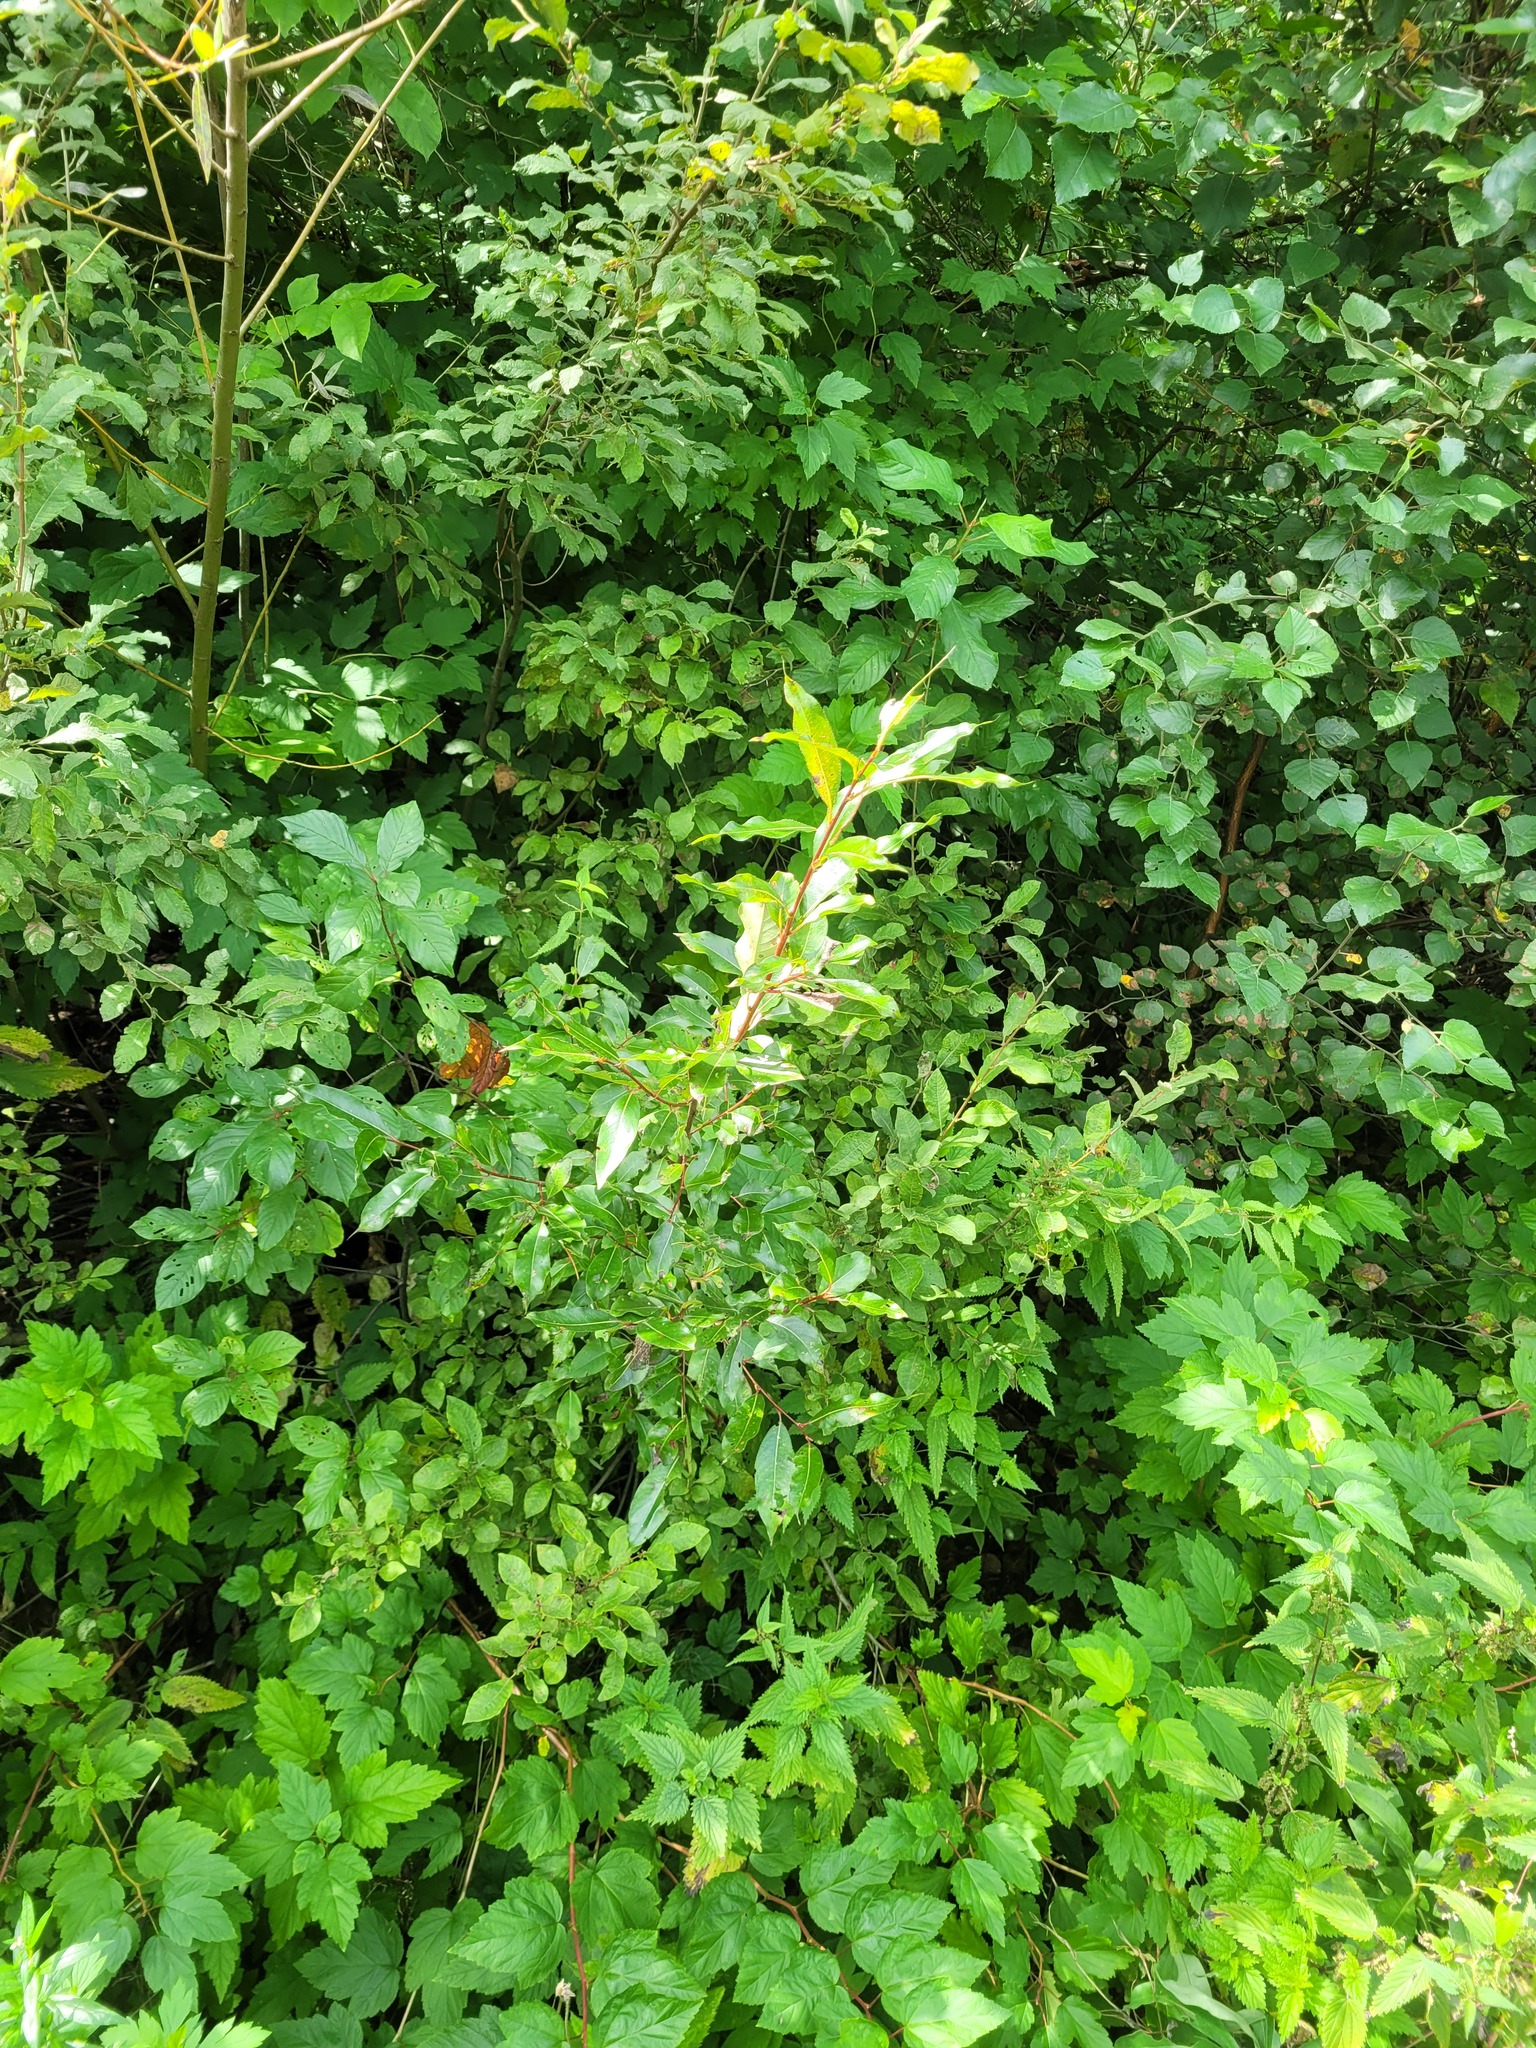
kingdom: Plantae
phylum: Tracheophyta
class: Magnoliopsida
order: Malpighiales
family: Salicaceae
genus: Salix
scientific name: Salix pentandra
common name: Bay willow
